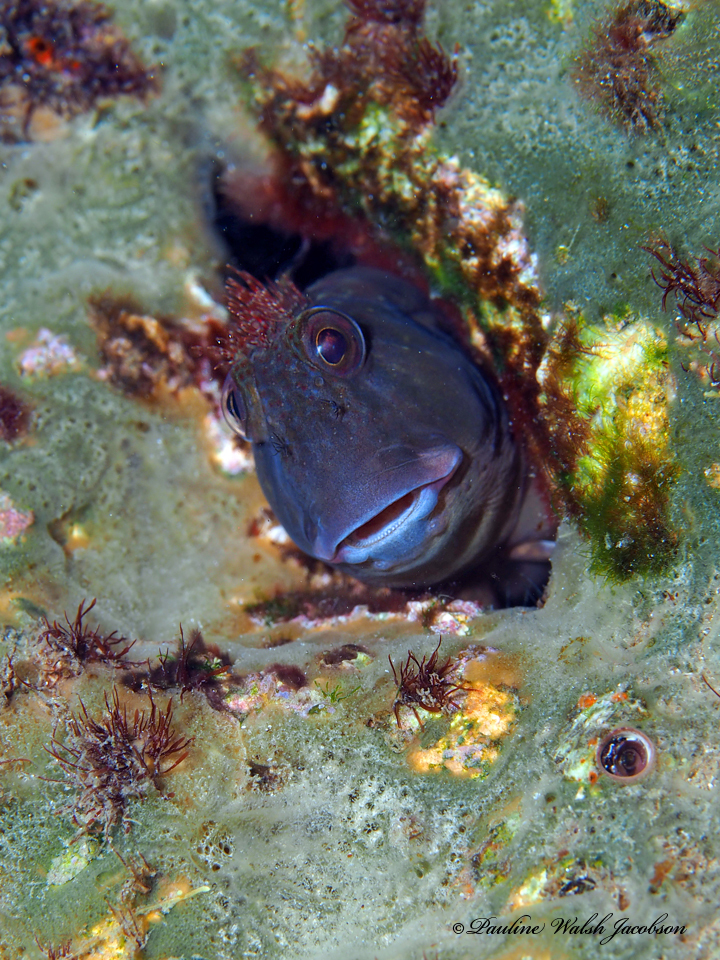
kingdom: Animalia
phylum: Chordata
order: Perciformes
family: Blenniidae
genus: Scartella
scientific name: Scartella cristata
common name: Molly miller
